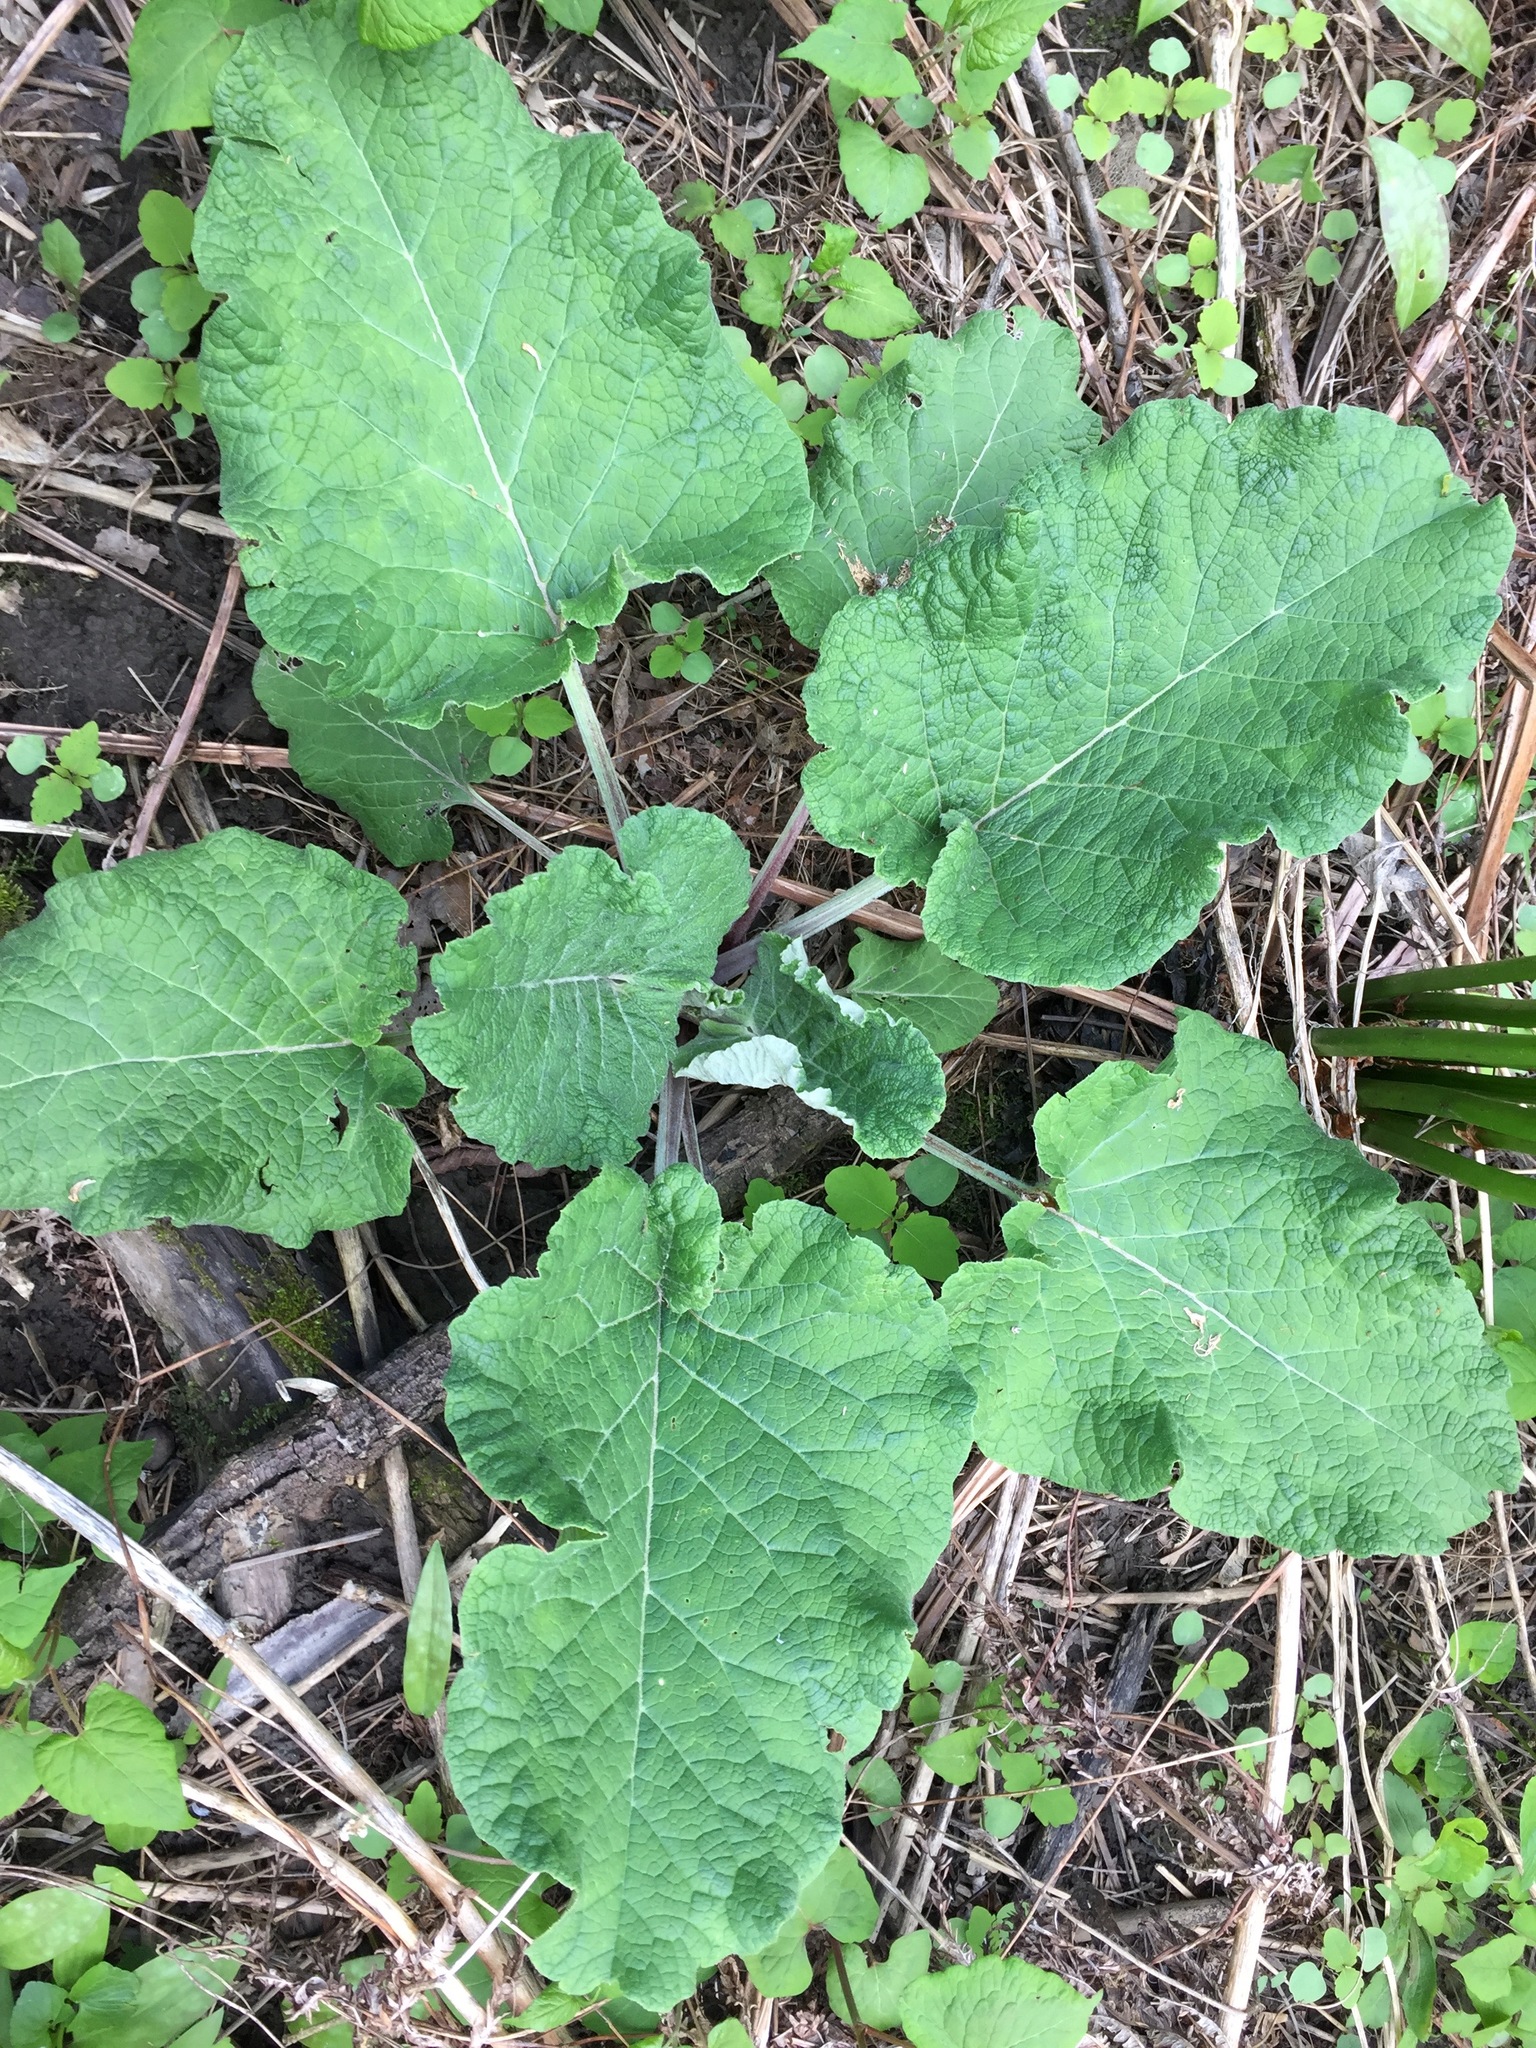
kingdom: Plantae
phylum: Tracheophyta
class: Magnoliopsida
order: Asterales
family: Asteraceae
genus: Arctium
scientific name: Arctium
